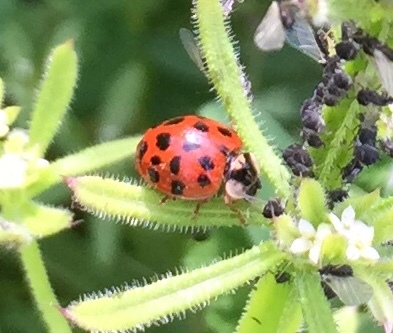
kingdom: Animalia
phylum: Arthropoda
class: Insecta
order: Coleoptera
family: Coccinellidae
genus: Harmonia
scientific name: Harmonia axyridis
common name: Harlequin ladybird
